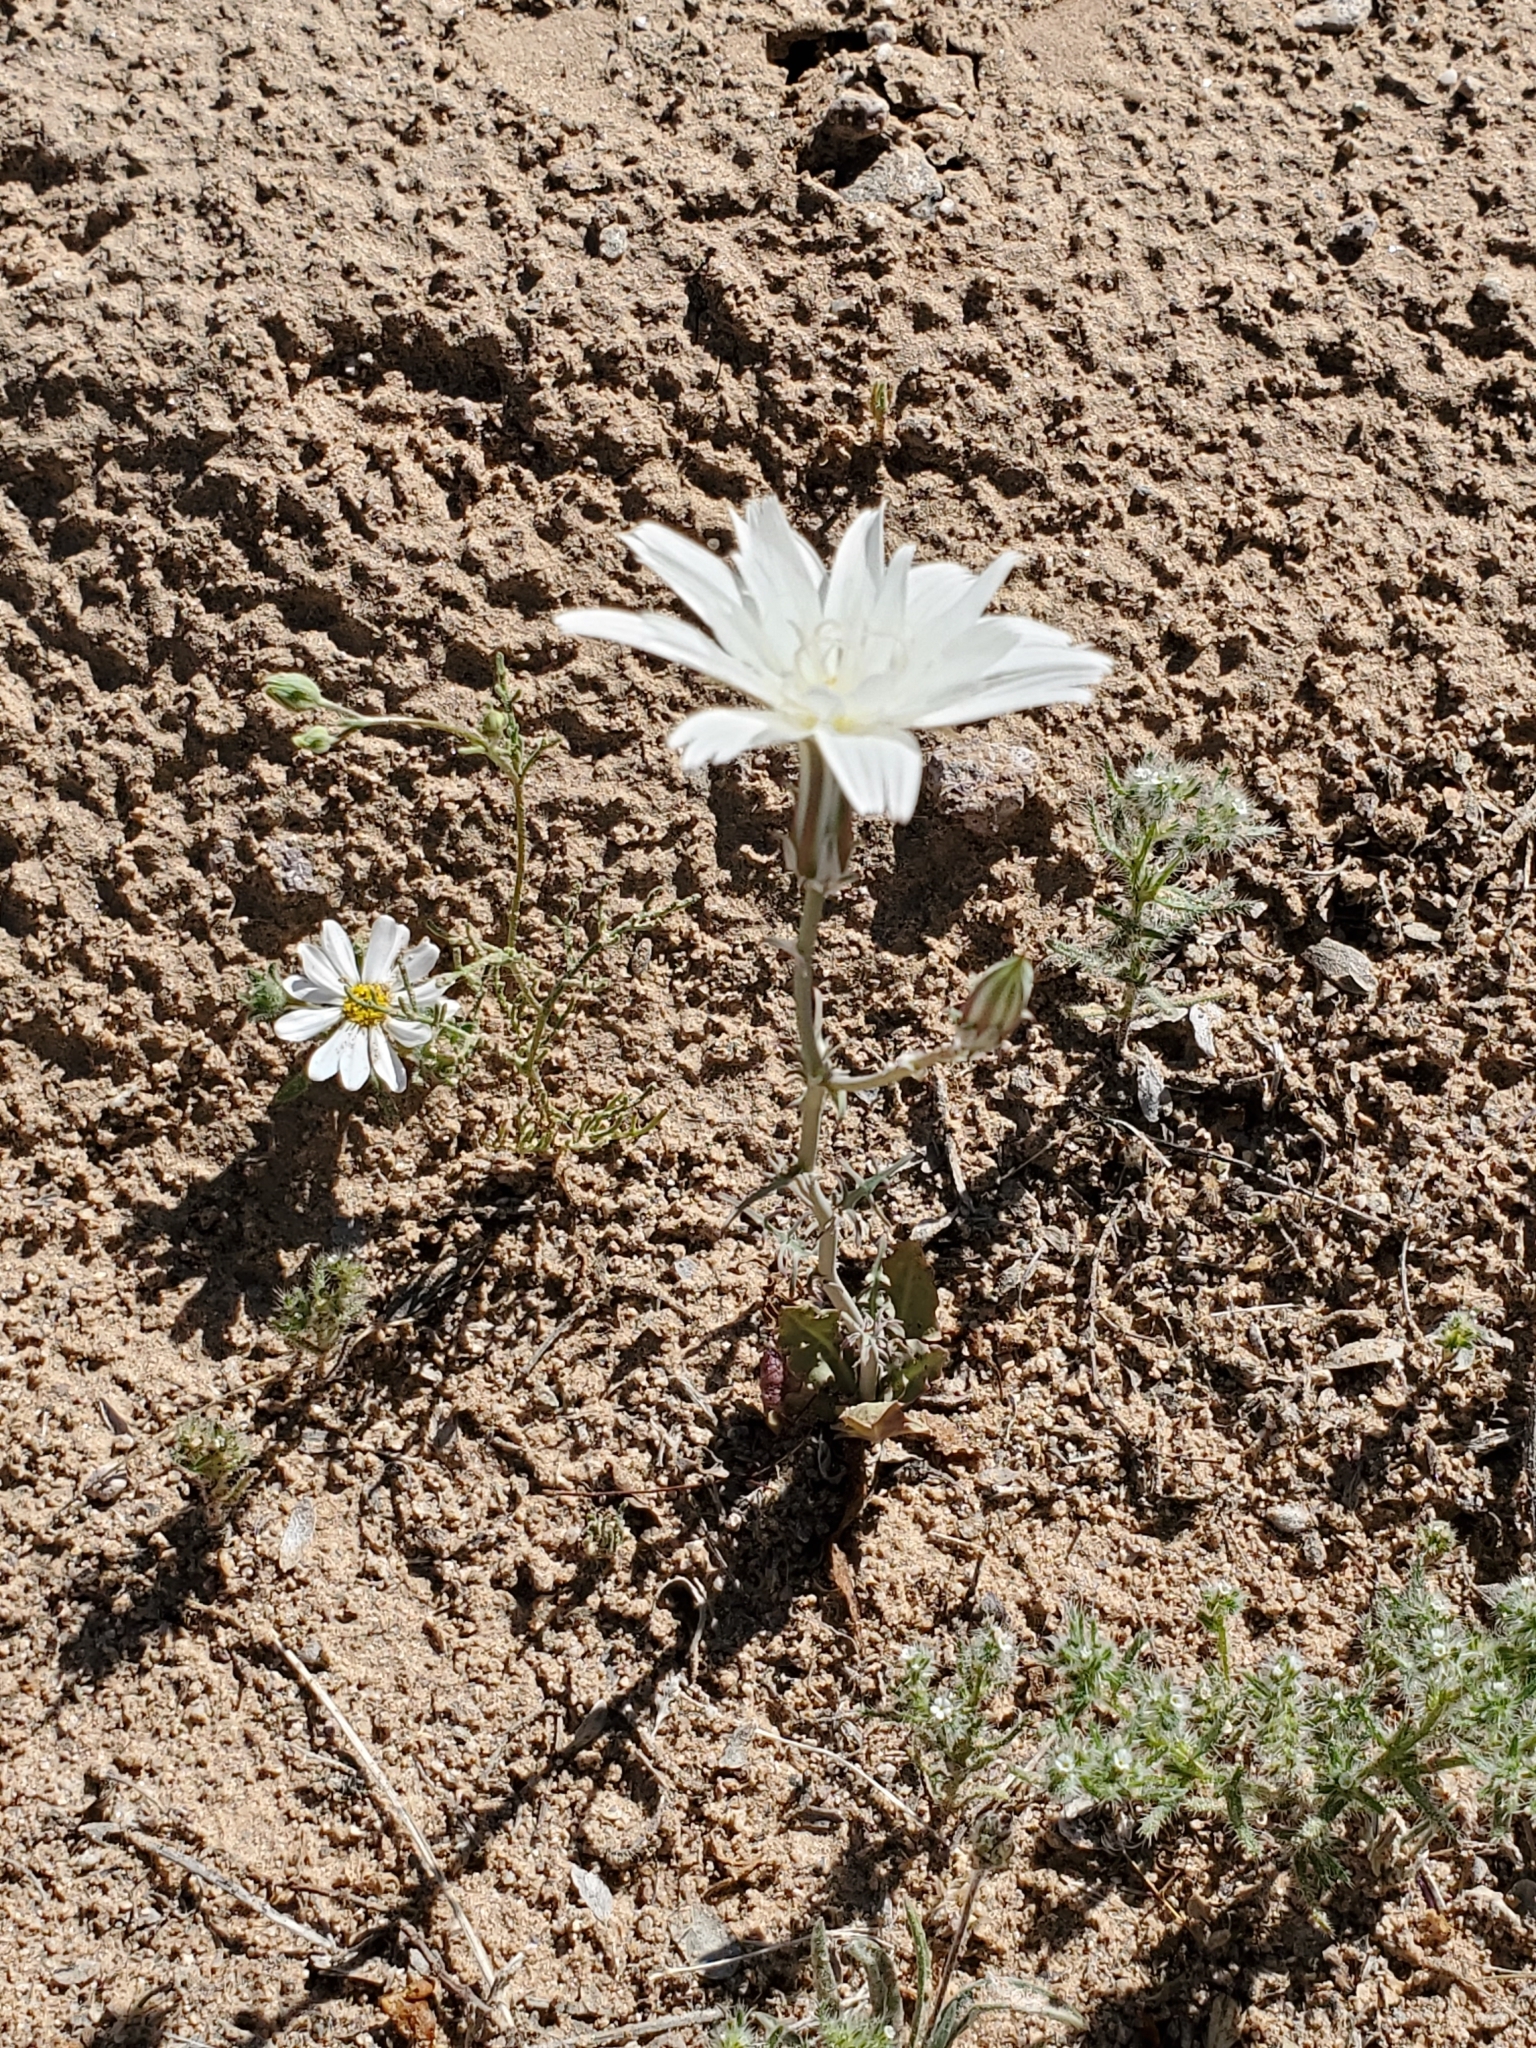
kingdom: Plantae
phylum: Tracheophyta
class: Magnoliopsida
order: Asterales
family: Asteraceae
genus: Rafinesquia
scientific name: Rafinesquia neomexicana
